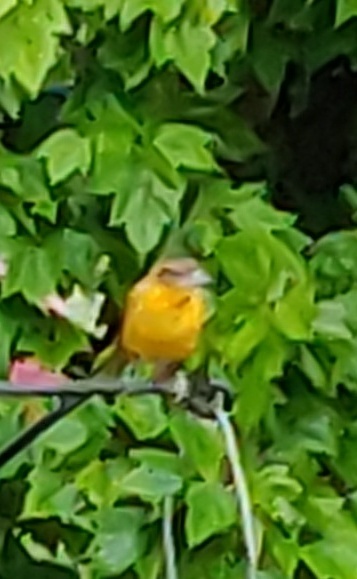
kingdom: Animalia
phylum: Chordata
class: Aves
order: Passeriformes
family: Icteridae
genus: Icterus
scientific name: Icterus galbula
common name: Baltimore oriole
